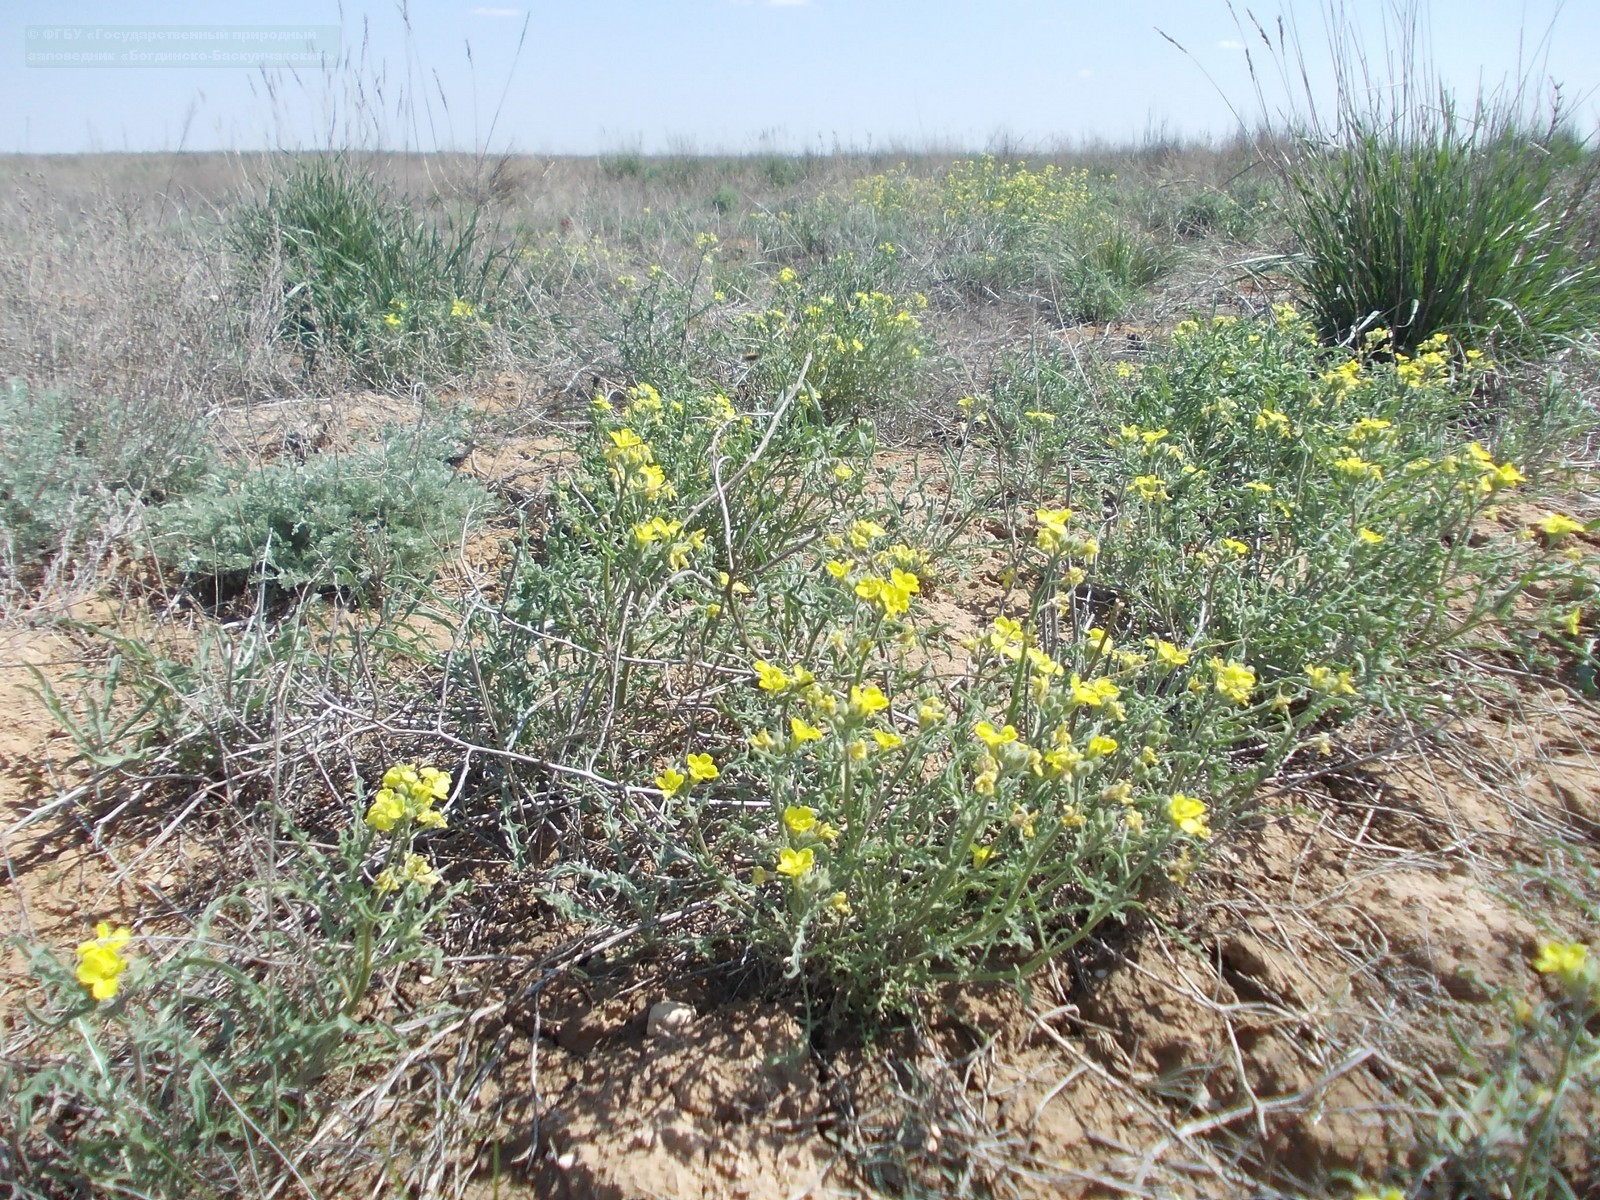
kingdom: Plantae
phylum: Tracheophyta
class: Magnoliopsida
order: Brassicales
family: Brassicaceae
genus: Sterigmostemum
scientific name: Sterigmostemum caspicum
